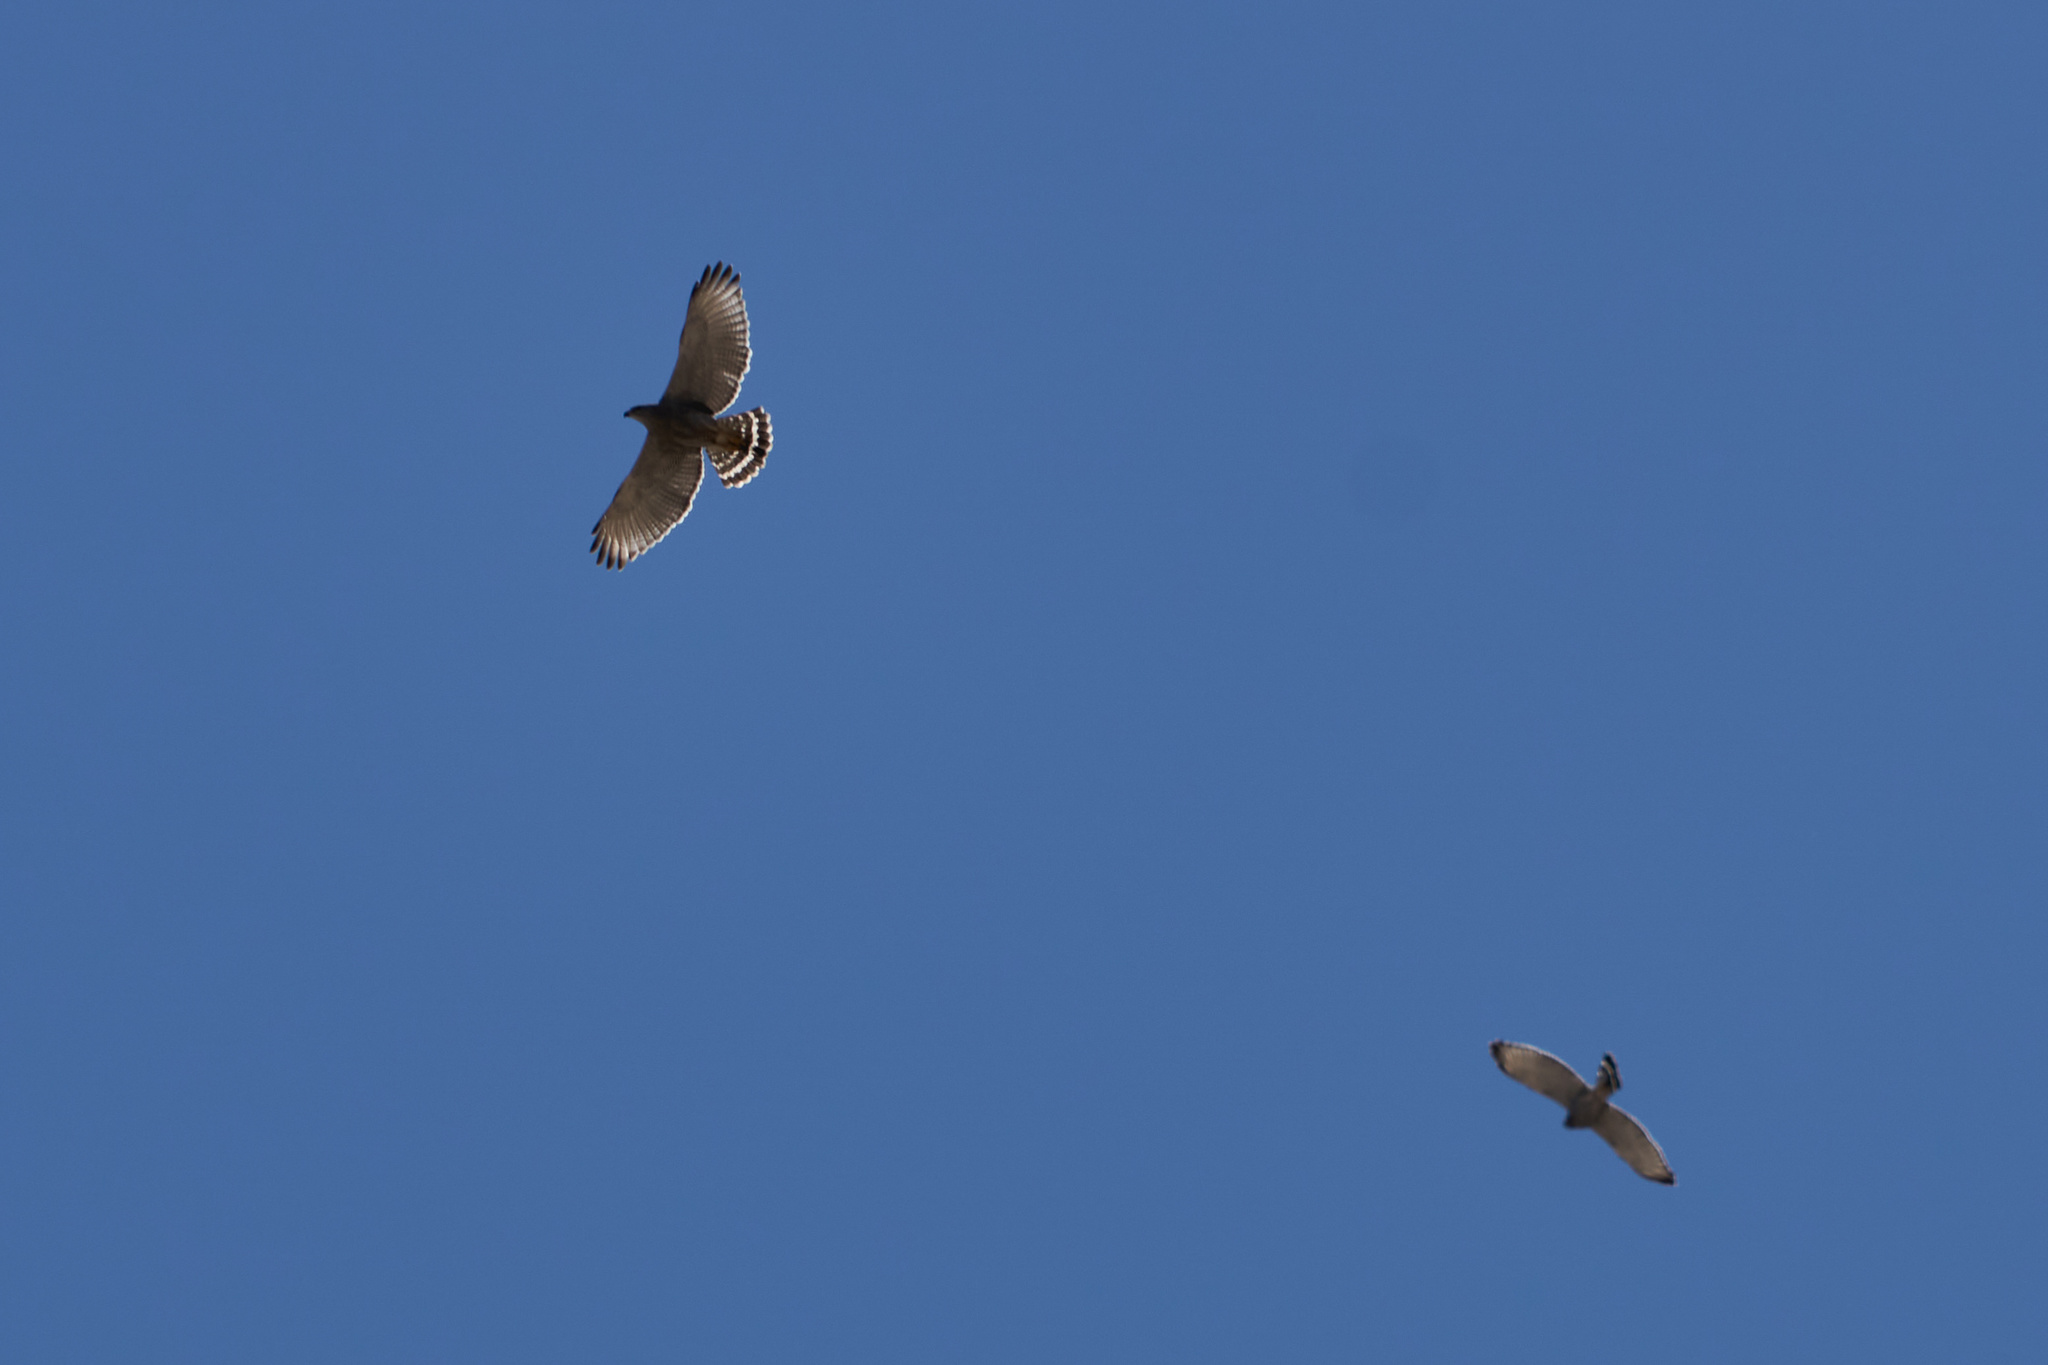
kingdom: Animalia
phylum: Chordata
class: Aves
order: Accipitriformes
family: Accipitridae
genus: Buteo
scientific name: Buteo nitidus
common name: Grey-lined hawk
